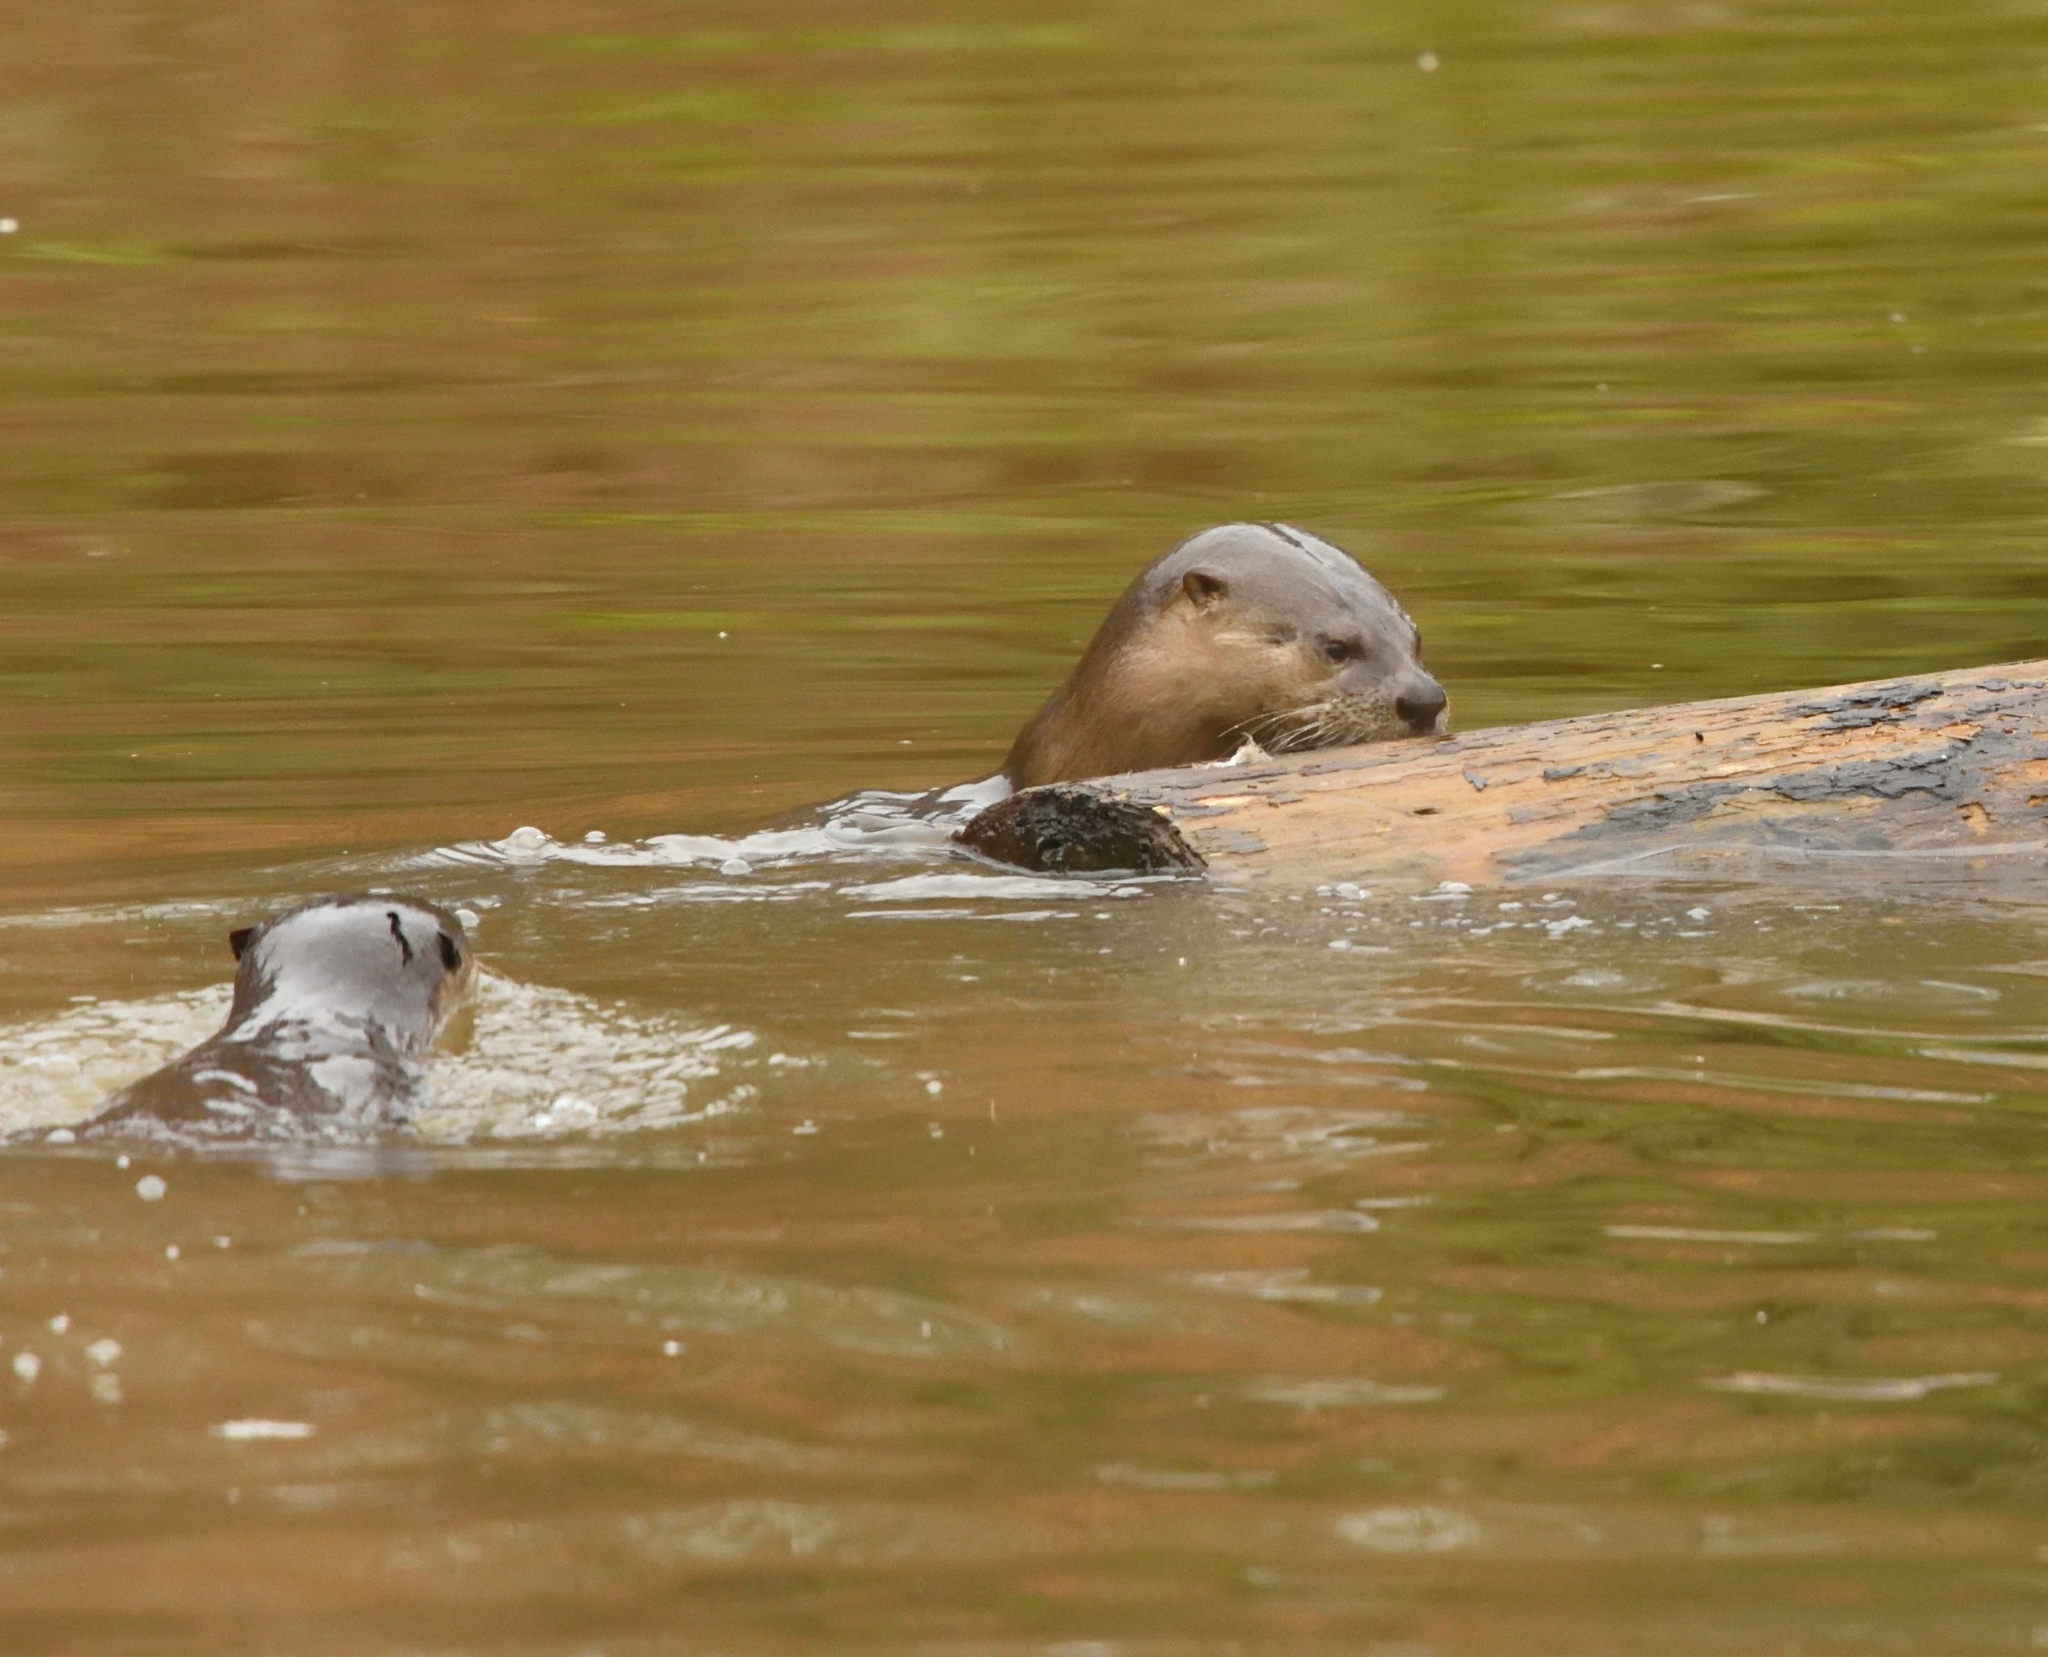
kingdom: Animalia
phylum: Chordata
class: Mammalia
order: Carnivora
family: Mustelidae
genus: Lontra
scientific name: Lontra canadensis
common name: North american river otter
